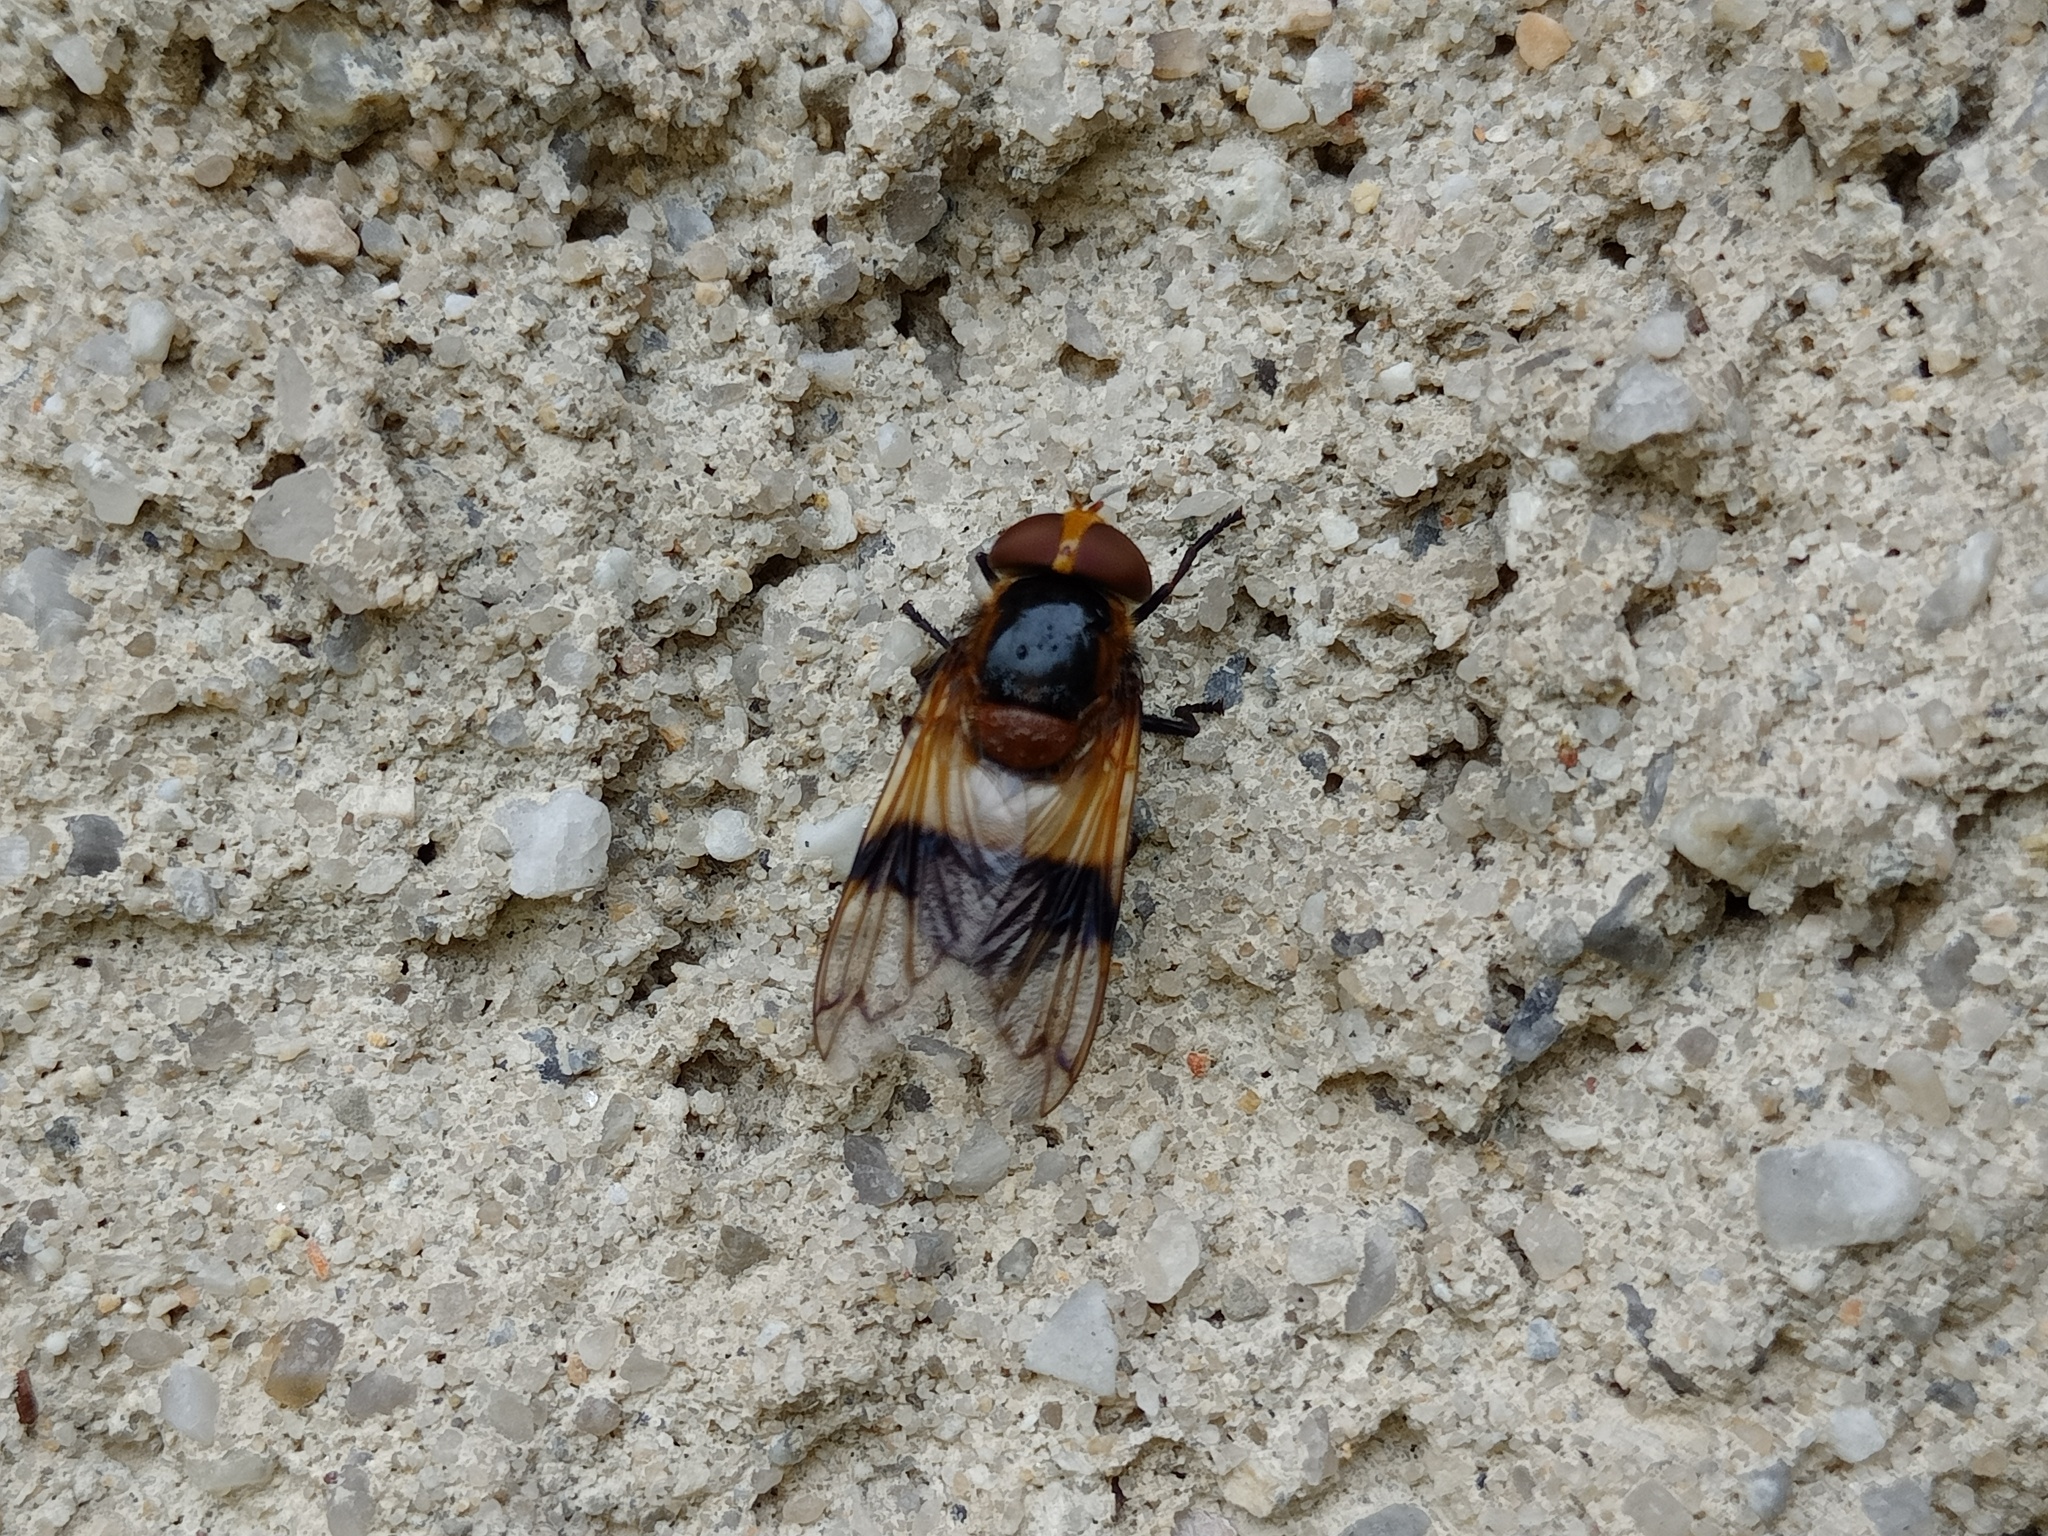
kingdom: Animalia
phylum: Arthropoda
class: Insecta
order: Diptera
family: Syrphidae
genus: Volucella
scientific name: Volucella pellucens
